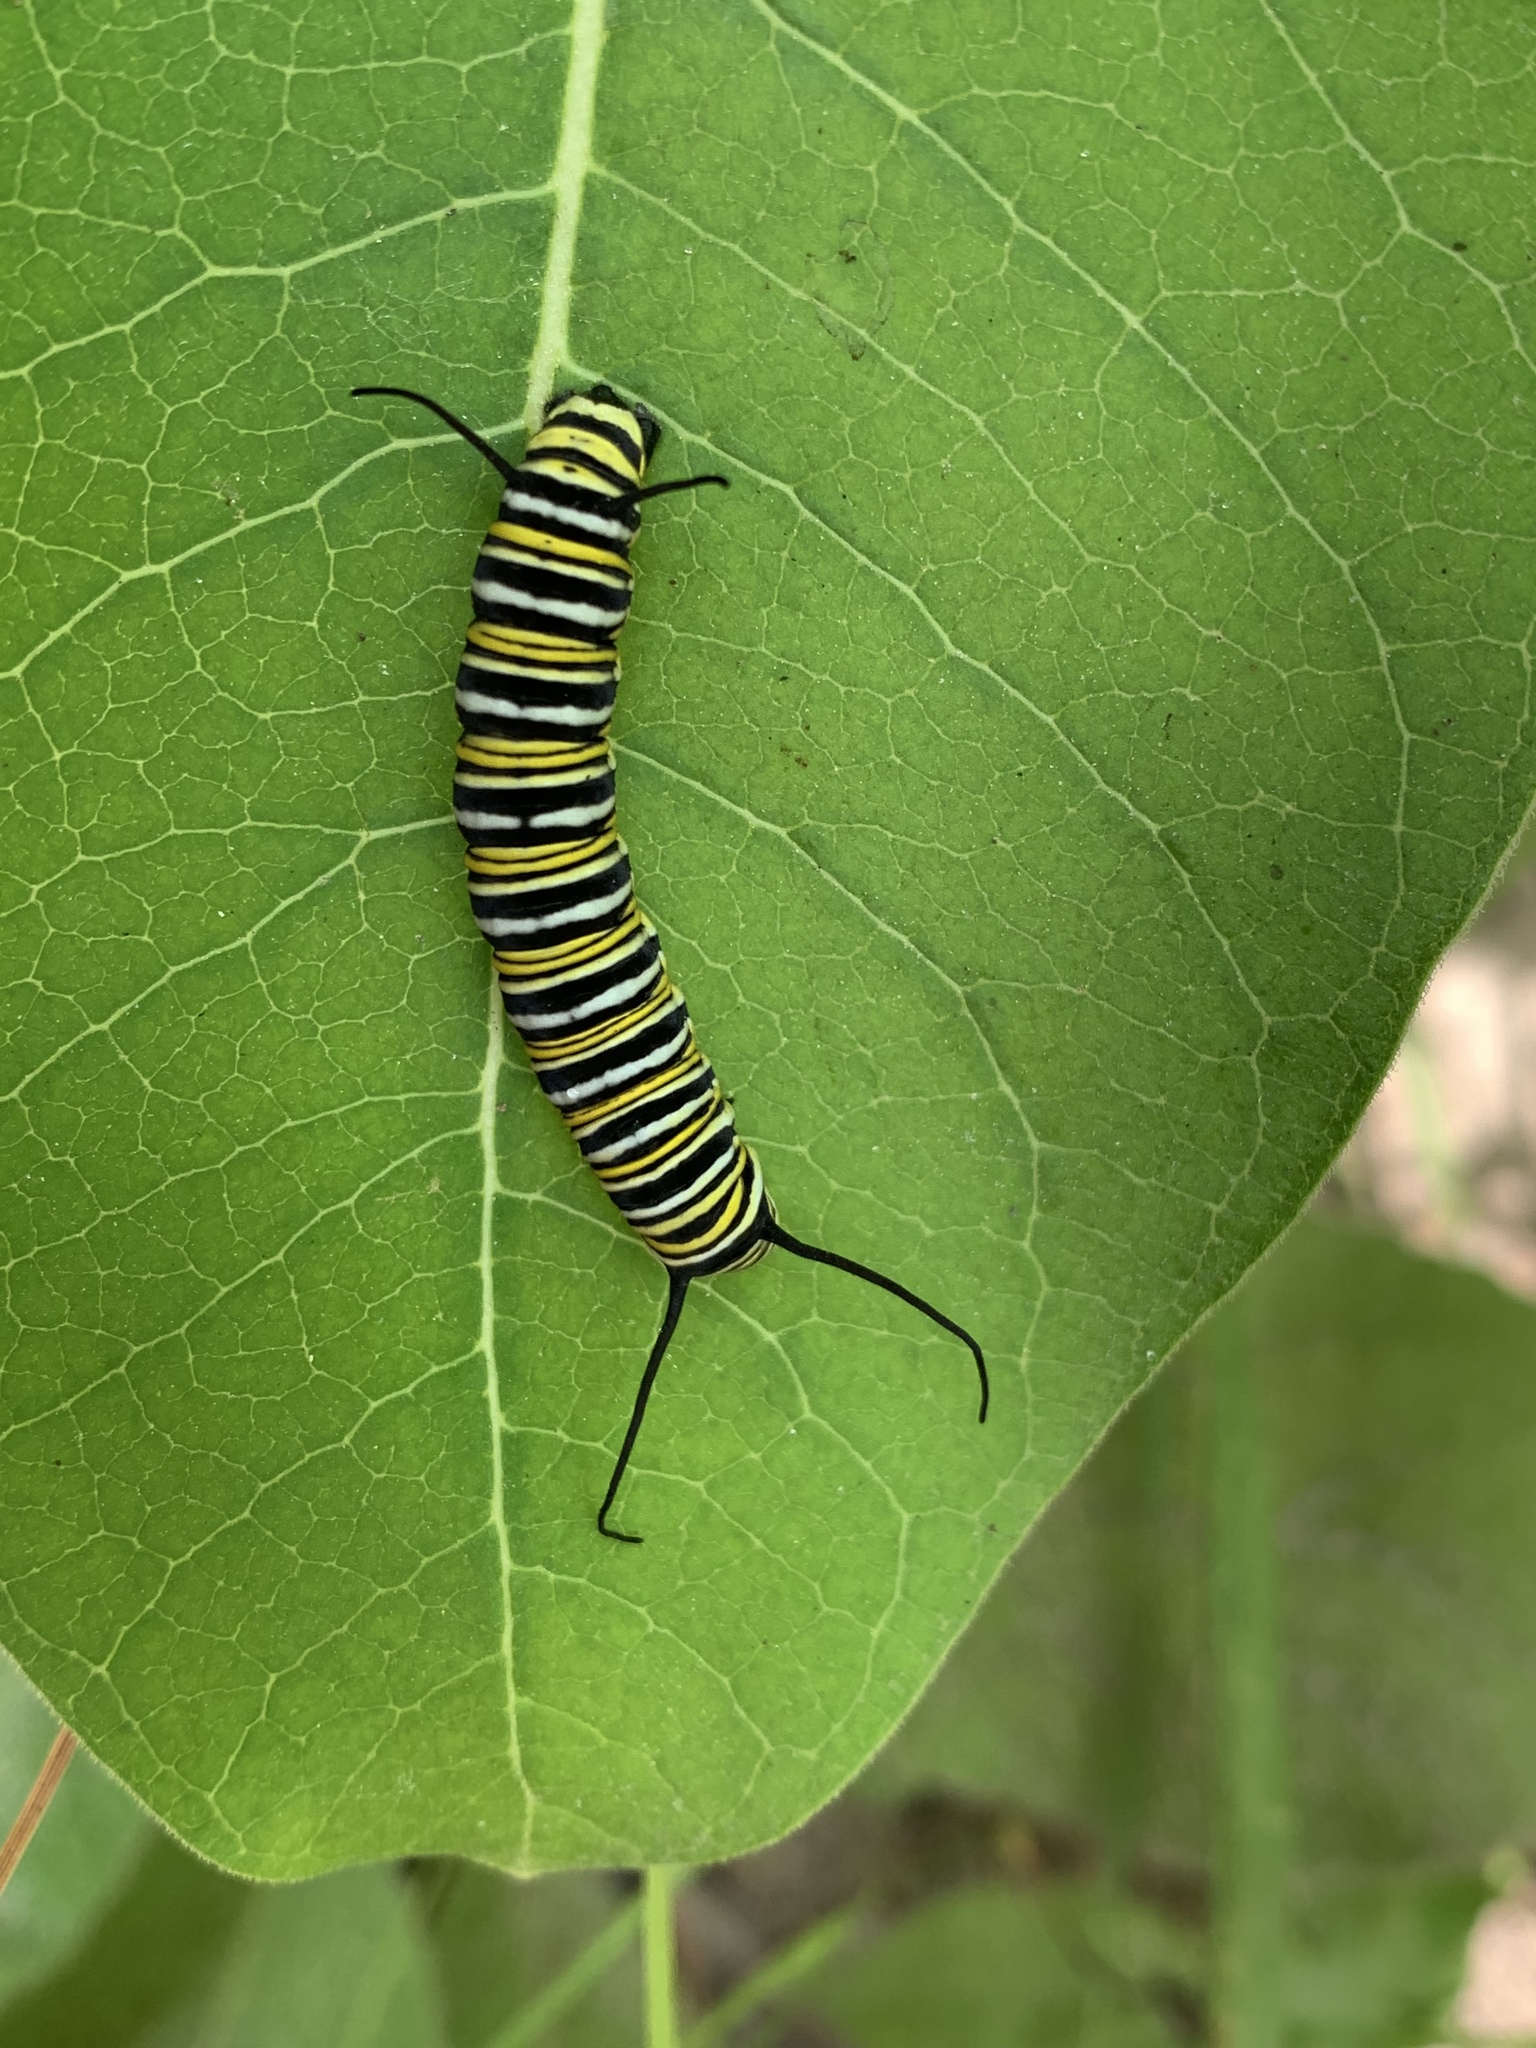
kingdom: Animalia
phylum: Arthropoda
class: Insecta
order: Lepidoptera
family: Nymphalidae
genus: Danaus
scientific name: Danaus plexippus
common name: Monarch
